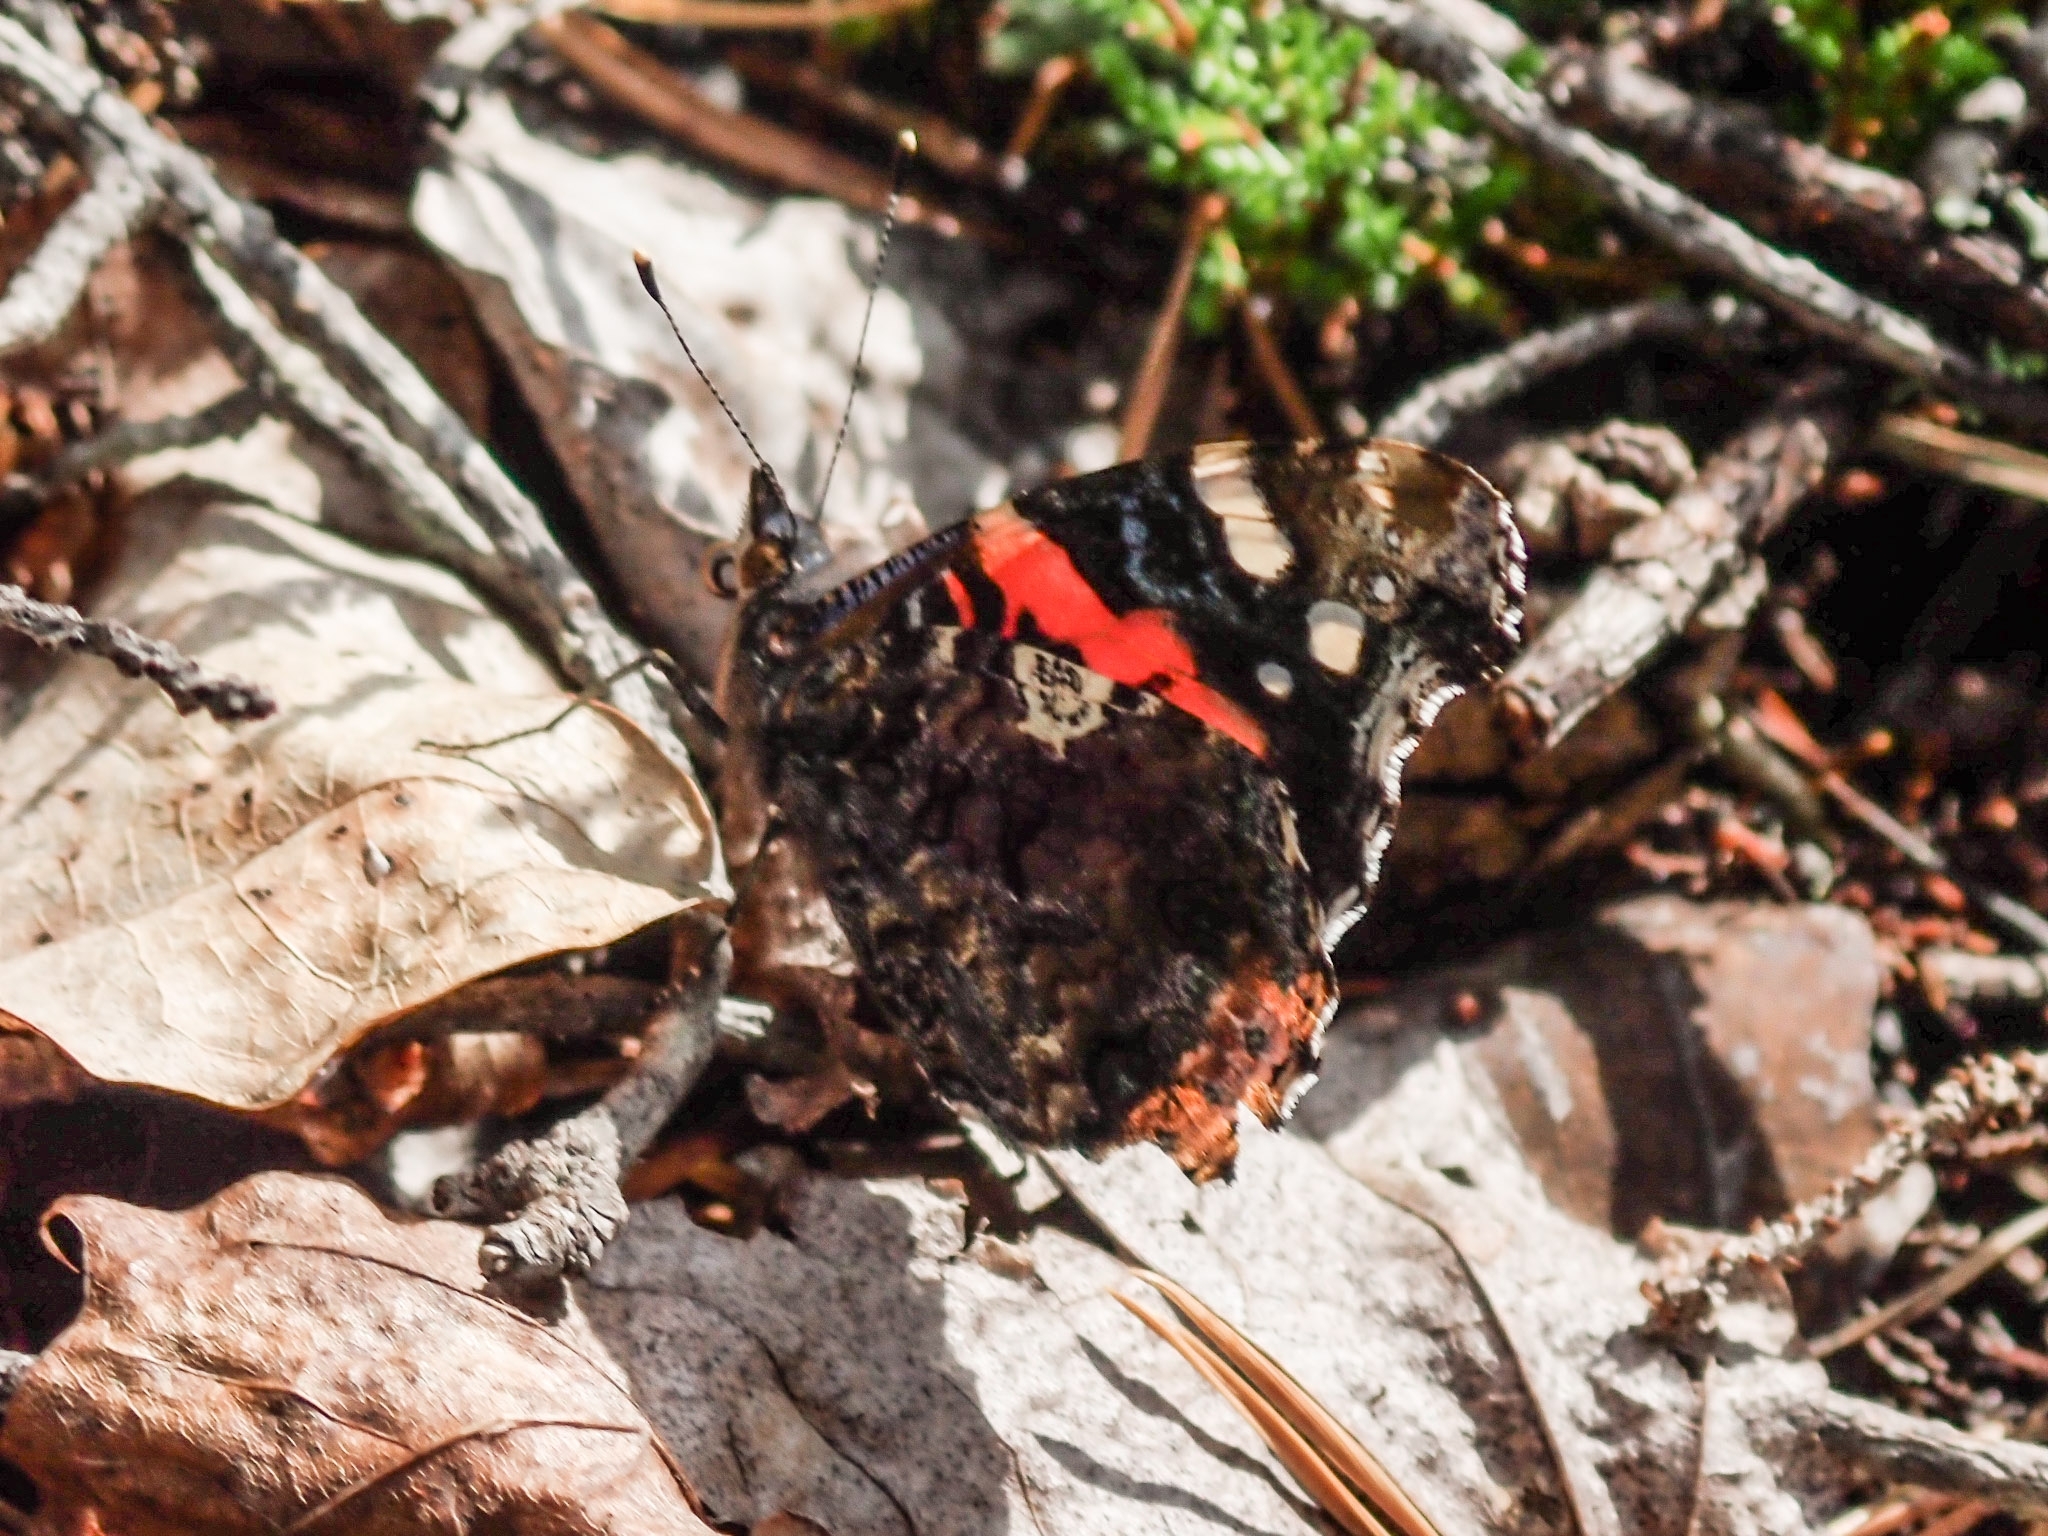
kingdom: Animalia
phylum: Arthropoda
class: Insecta
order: Lepidoptera
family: Nymphalidae
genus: Vanessa
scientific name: Vanessa atalanta
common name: Red admiral
